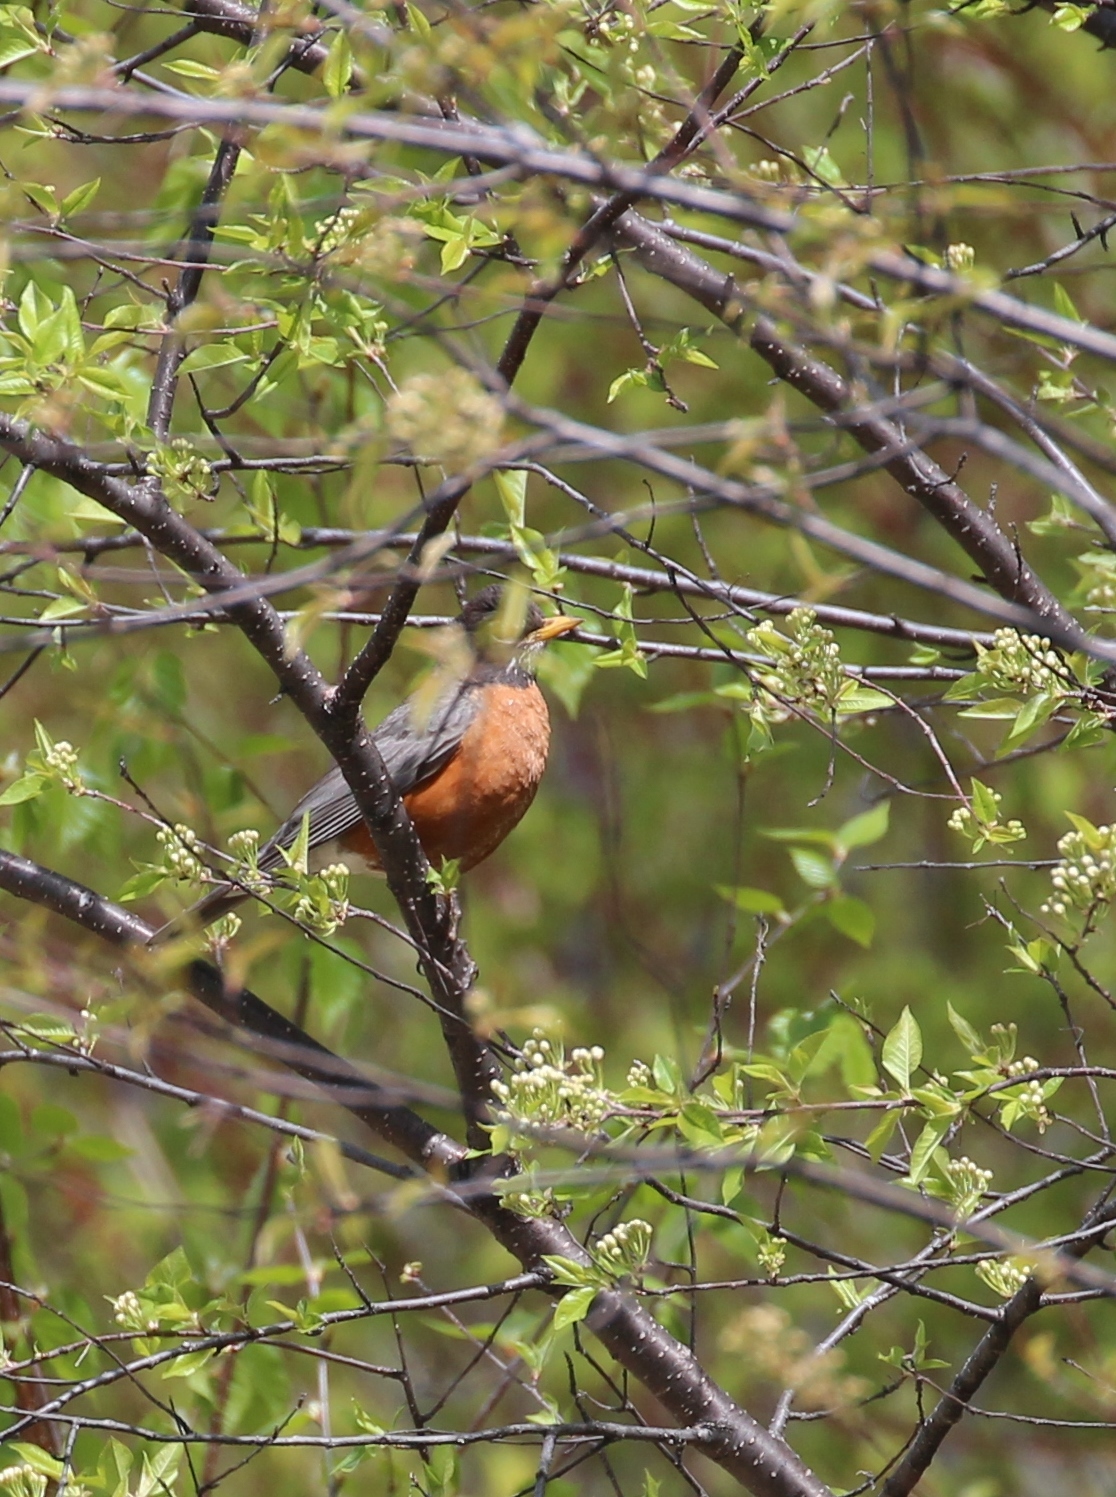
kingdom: Animalia
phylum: Chordata
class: Aves
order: Passeriformes
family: Turdidae
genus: Turdus
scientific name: Turdus migratorius
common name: American robin
